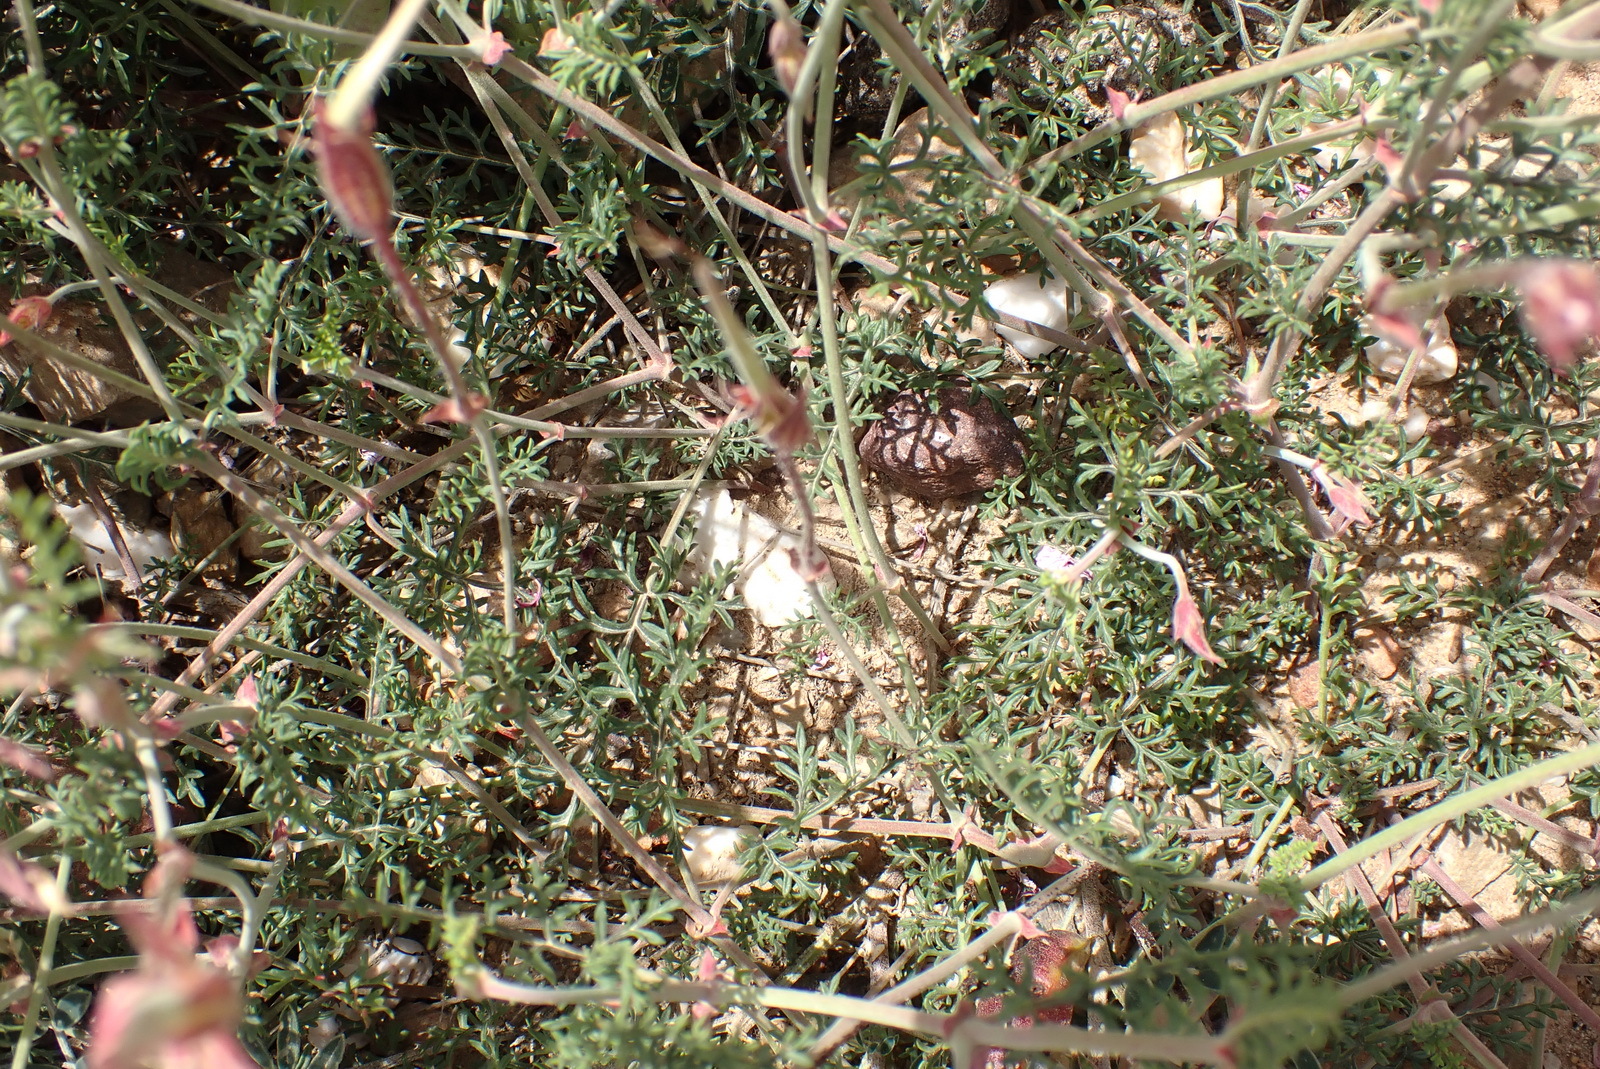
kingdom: Plantae
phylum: Tracheophyta
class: Magnoliopsida
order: Geraniales
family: Geraniaceae
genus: Pelargonium
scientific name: Pelargonium caucalifolium
